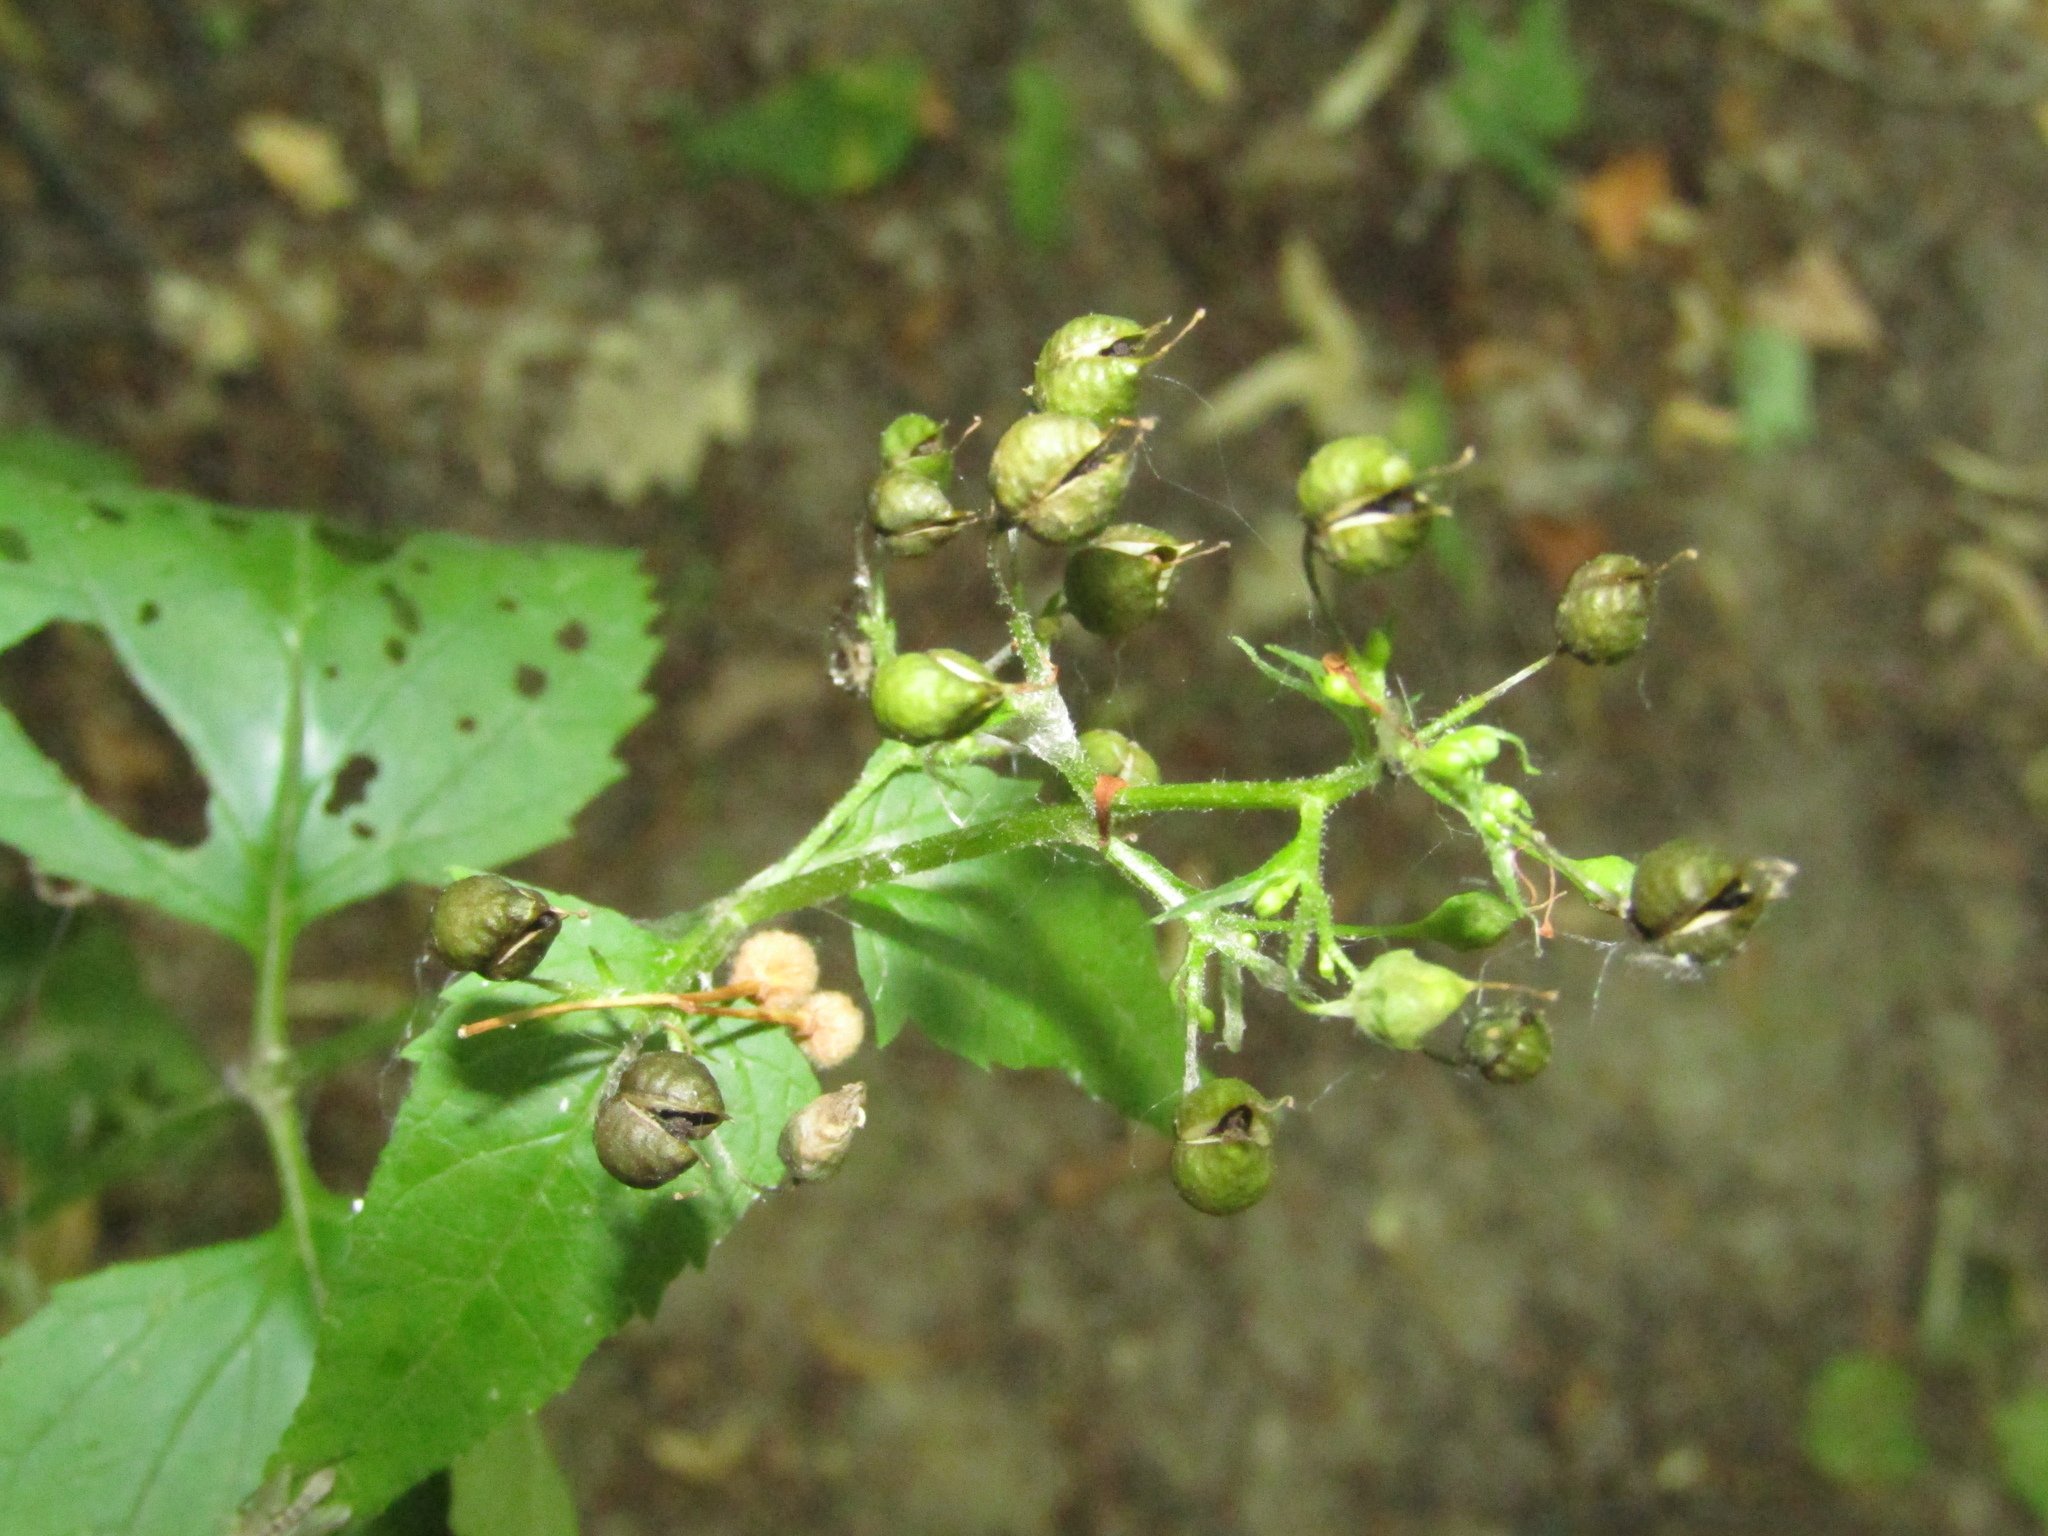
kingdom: Plantae
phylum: Tracheophyta
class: Magnoliopsida
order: Lamiales
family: Scrophulariaceae
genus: Scrophularia
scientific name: Scrophularia nodosa
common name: Common figwort
